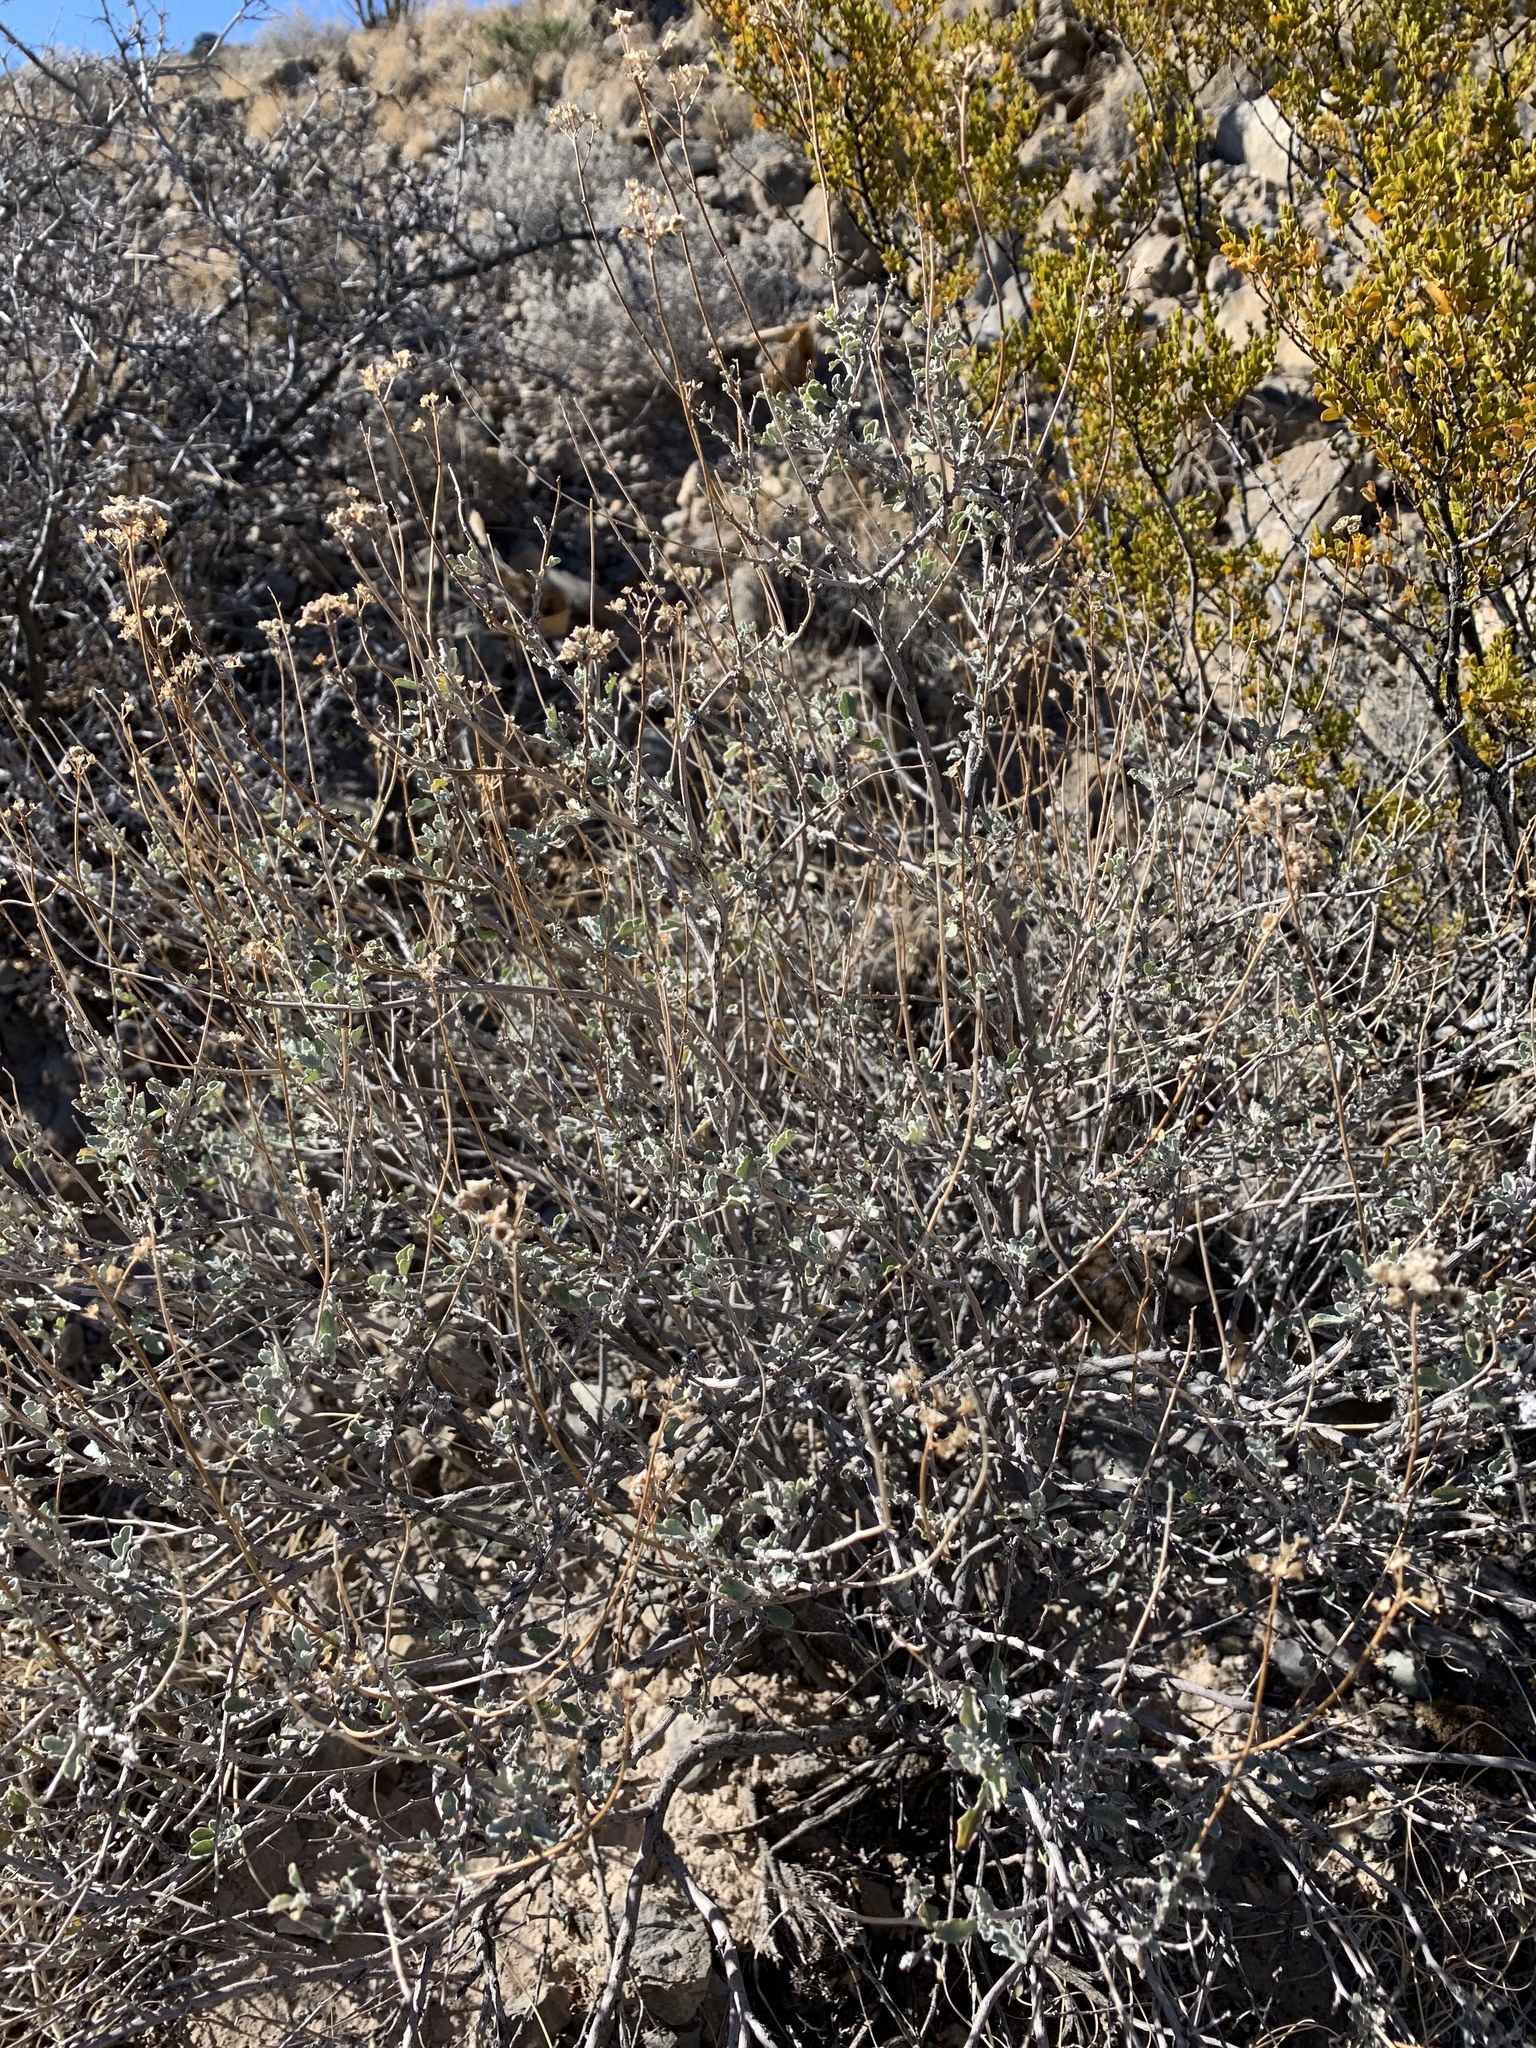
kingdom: Plantae
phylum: Tracheophyta
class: Magnoliopsida
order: Asterales
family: Asteraceae
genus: Parthenium
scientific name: Parthenium incanum
